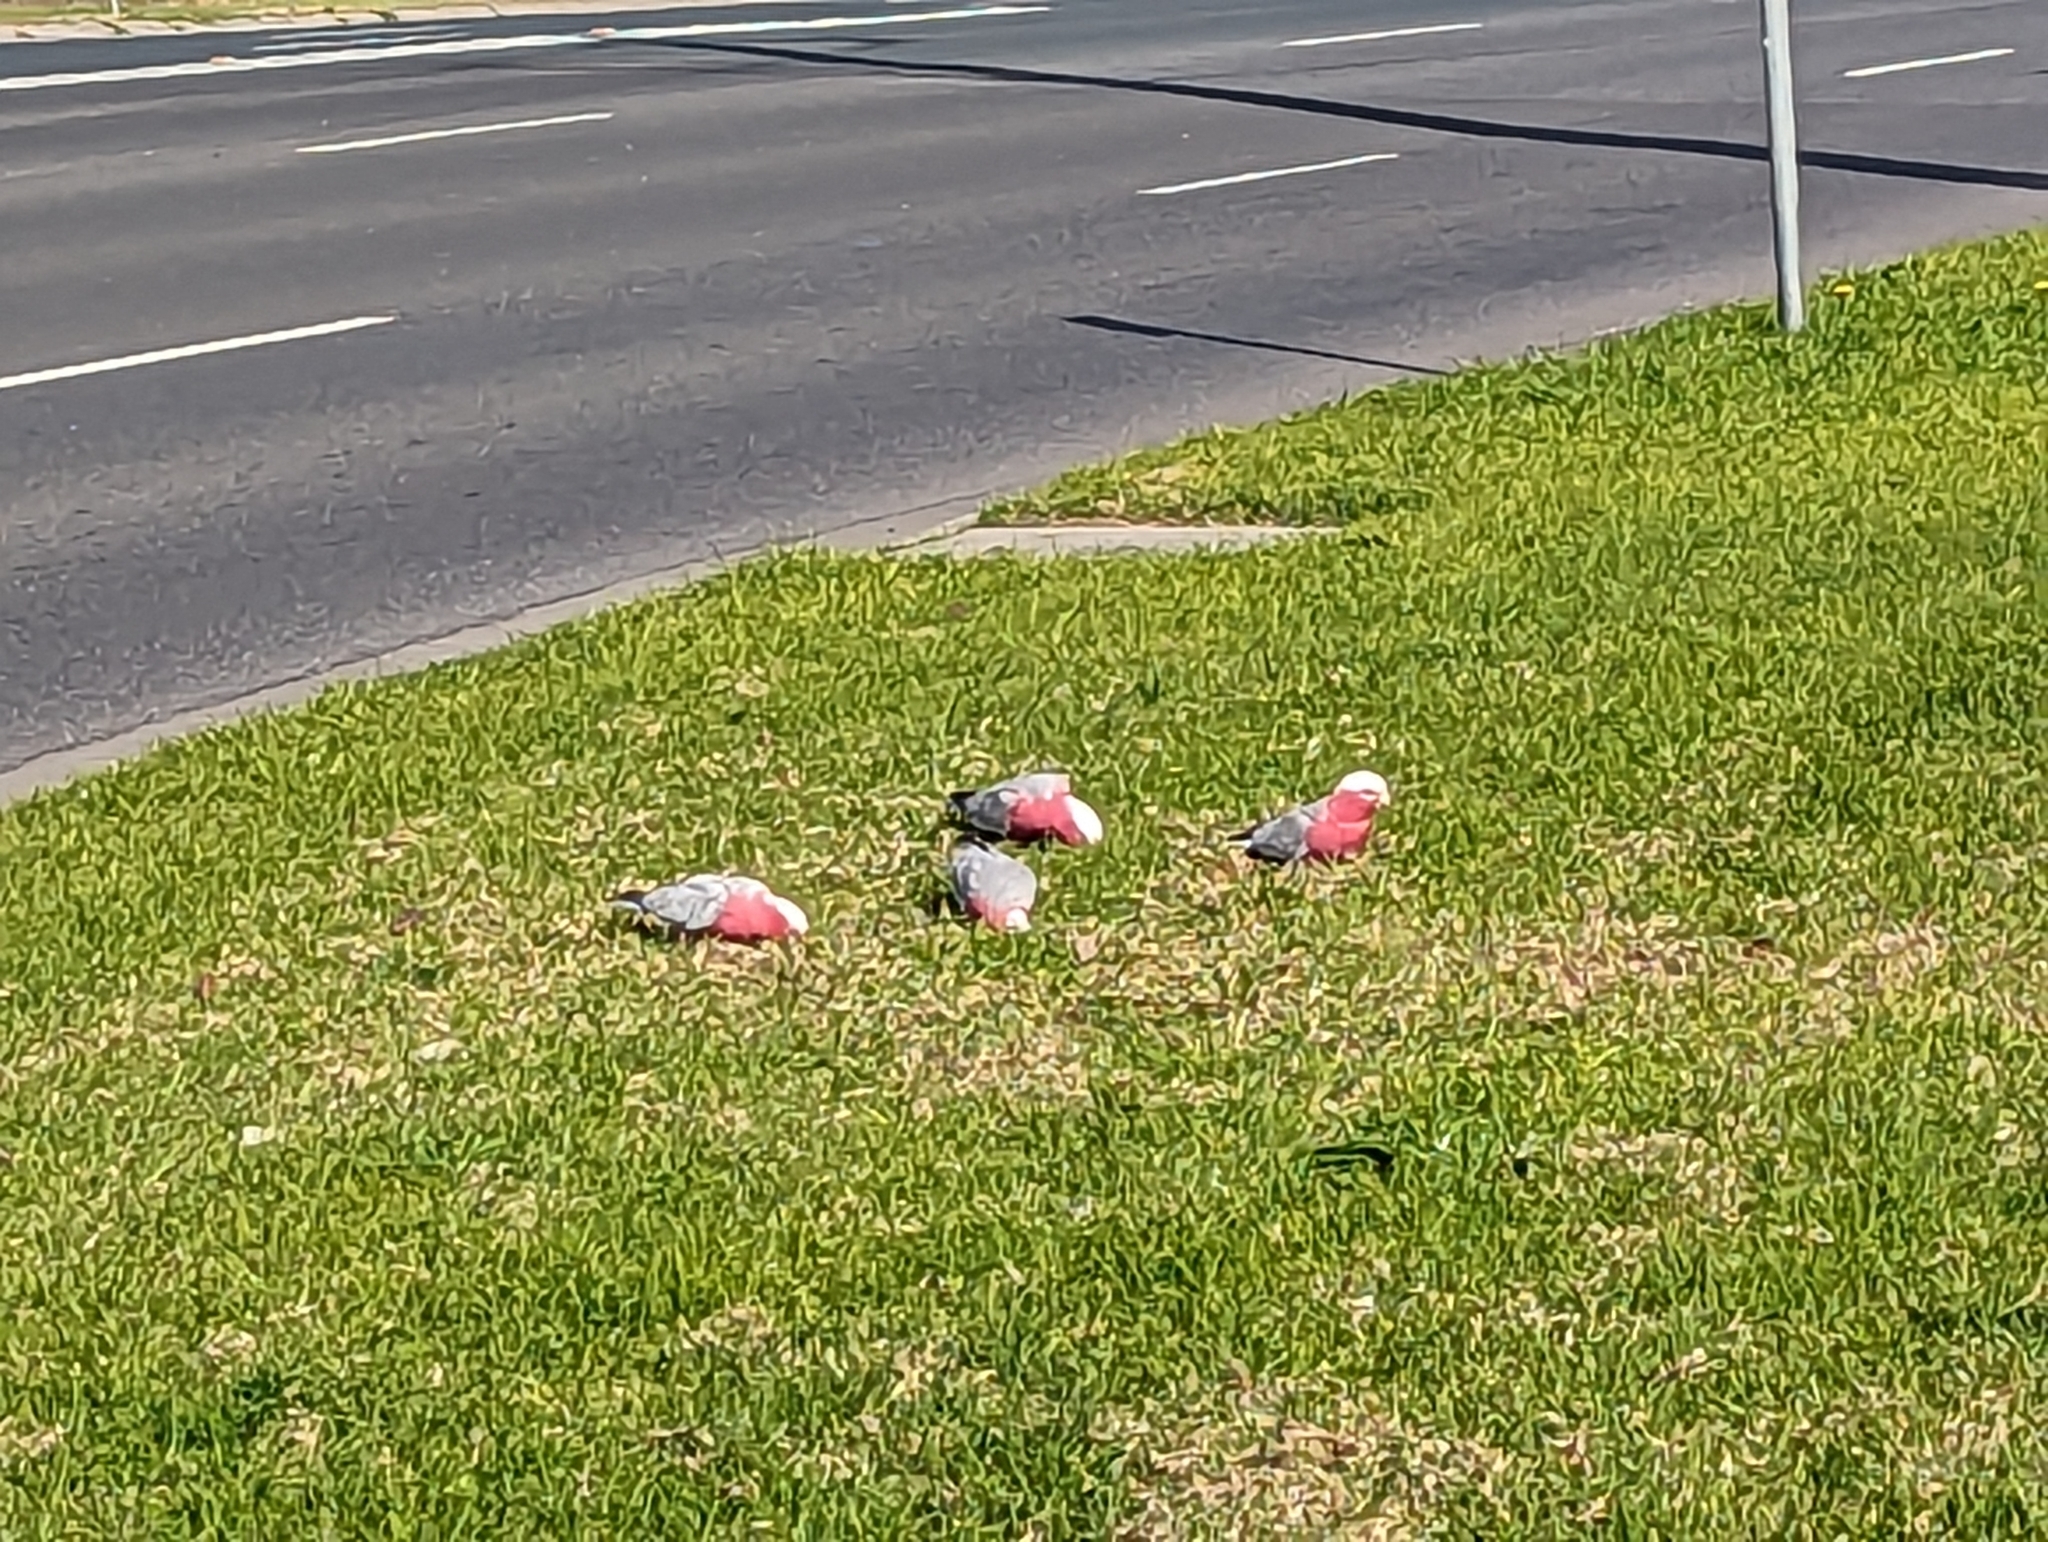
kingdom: Animalia
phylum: Chordata
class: Aves
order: Psittaciformes
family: Psittacidae
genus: Eolophus
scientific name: Eolophus roseicapilla
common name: Galah
